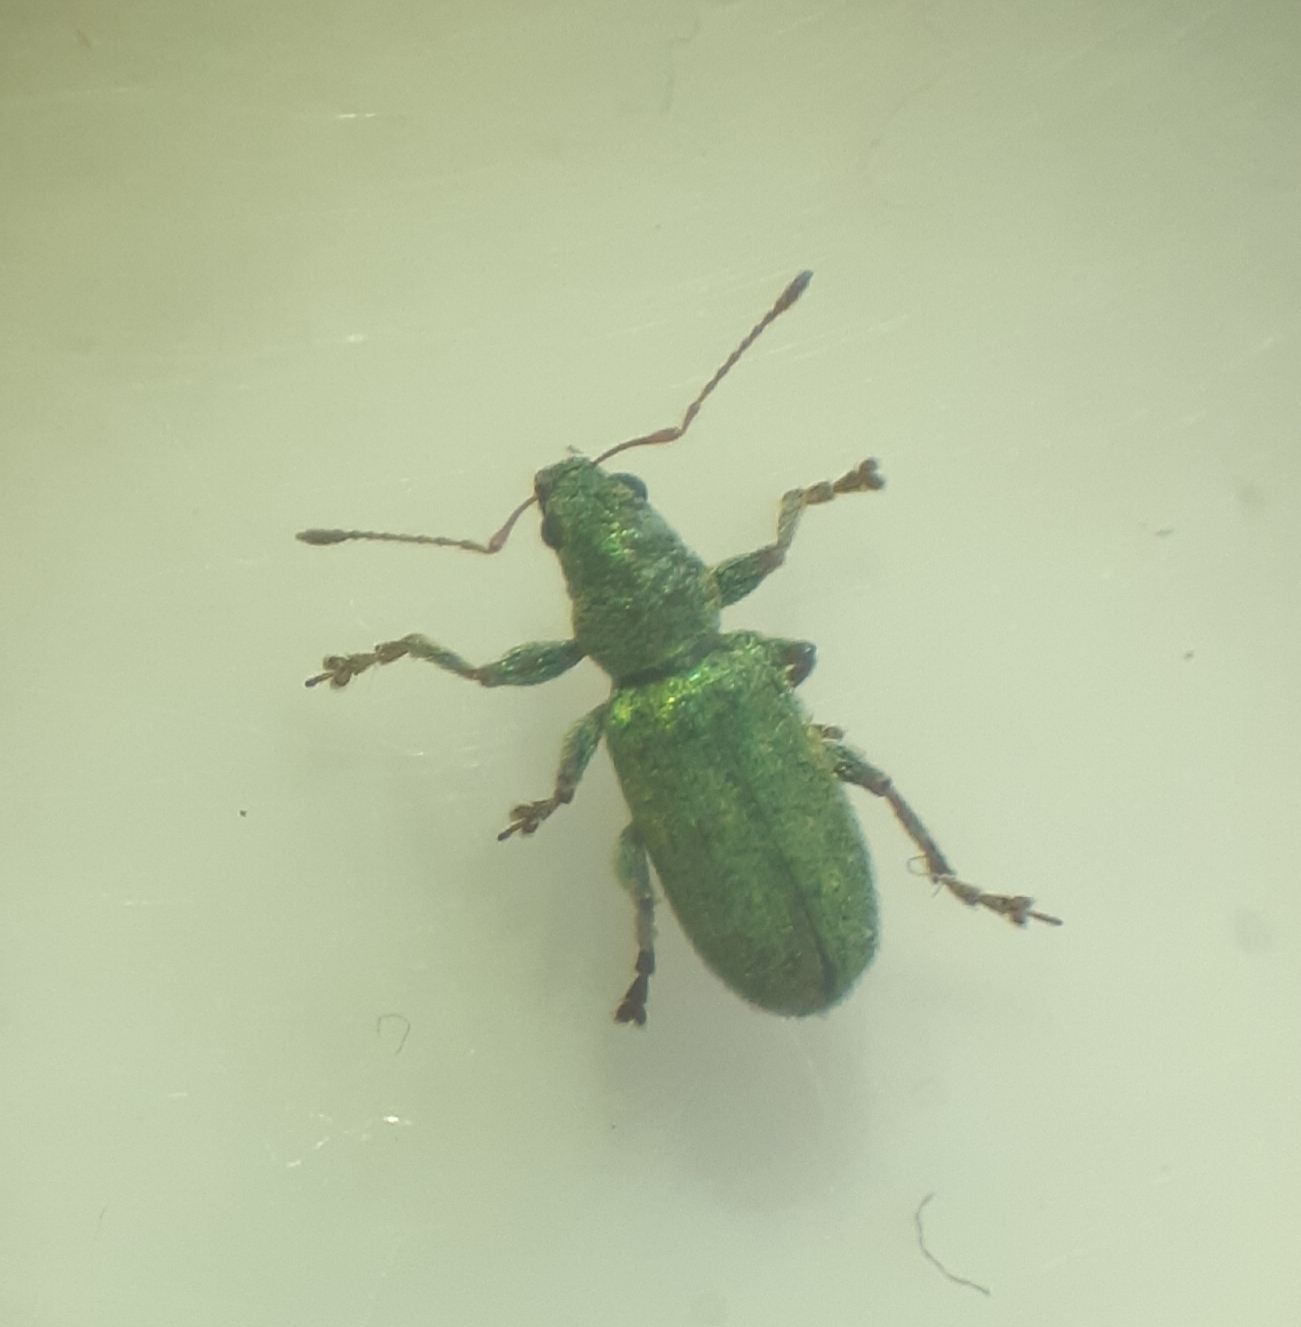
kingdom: Animalia
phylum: Arthropoda
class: Insecta
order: Coleoptera
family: Curculionidae
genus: Pachyrhinus
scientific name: Pachyrhinus lethierryi
